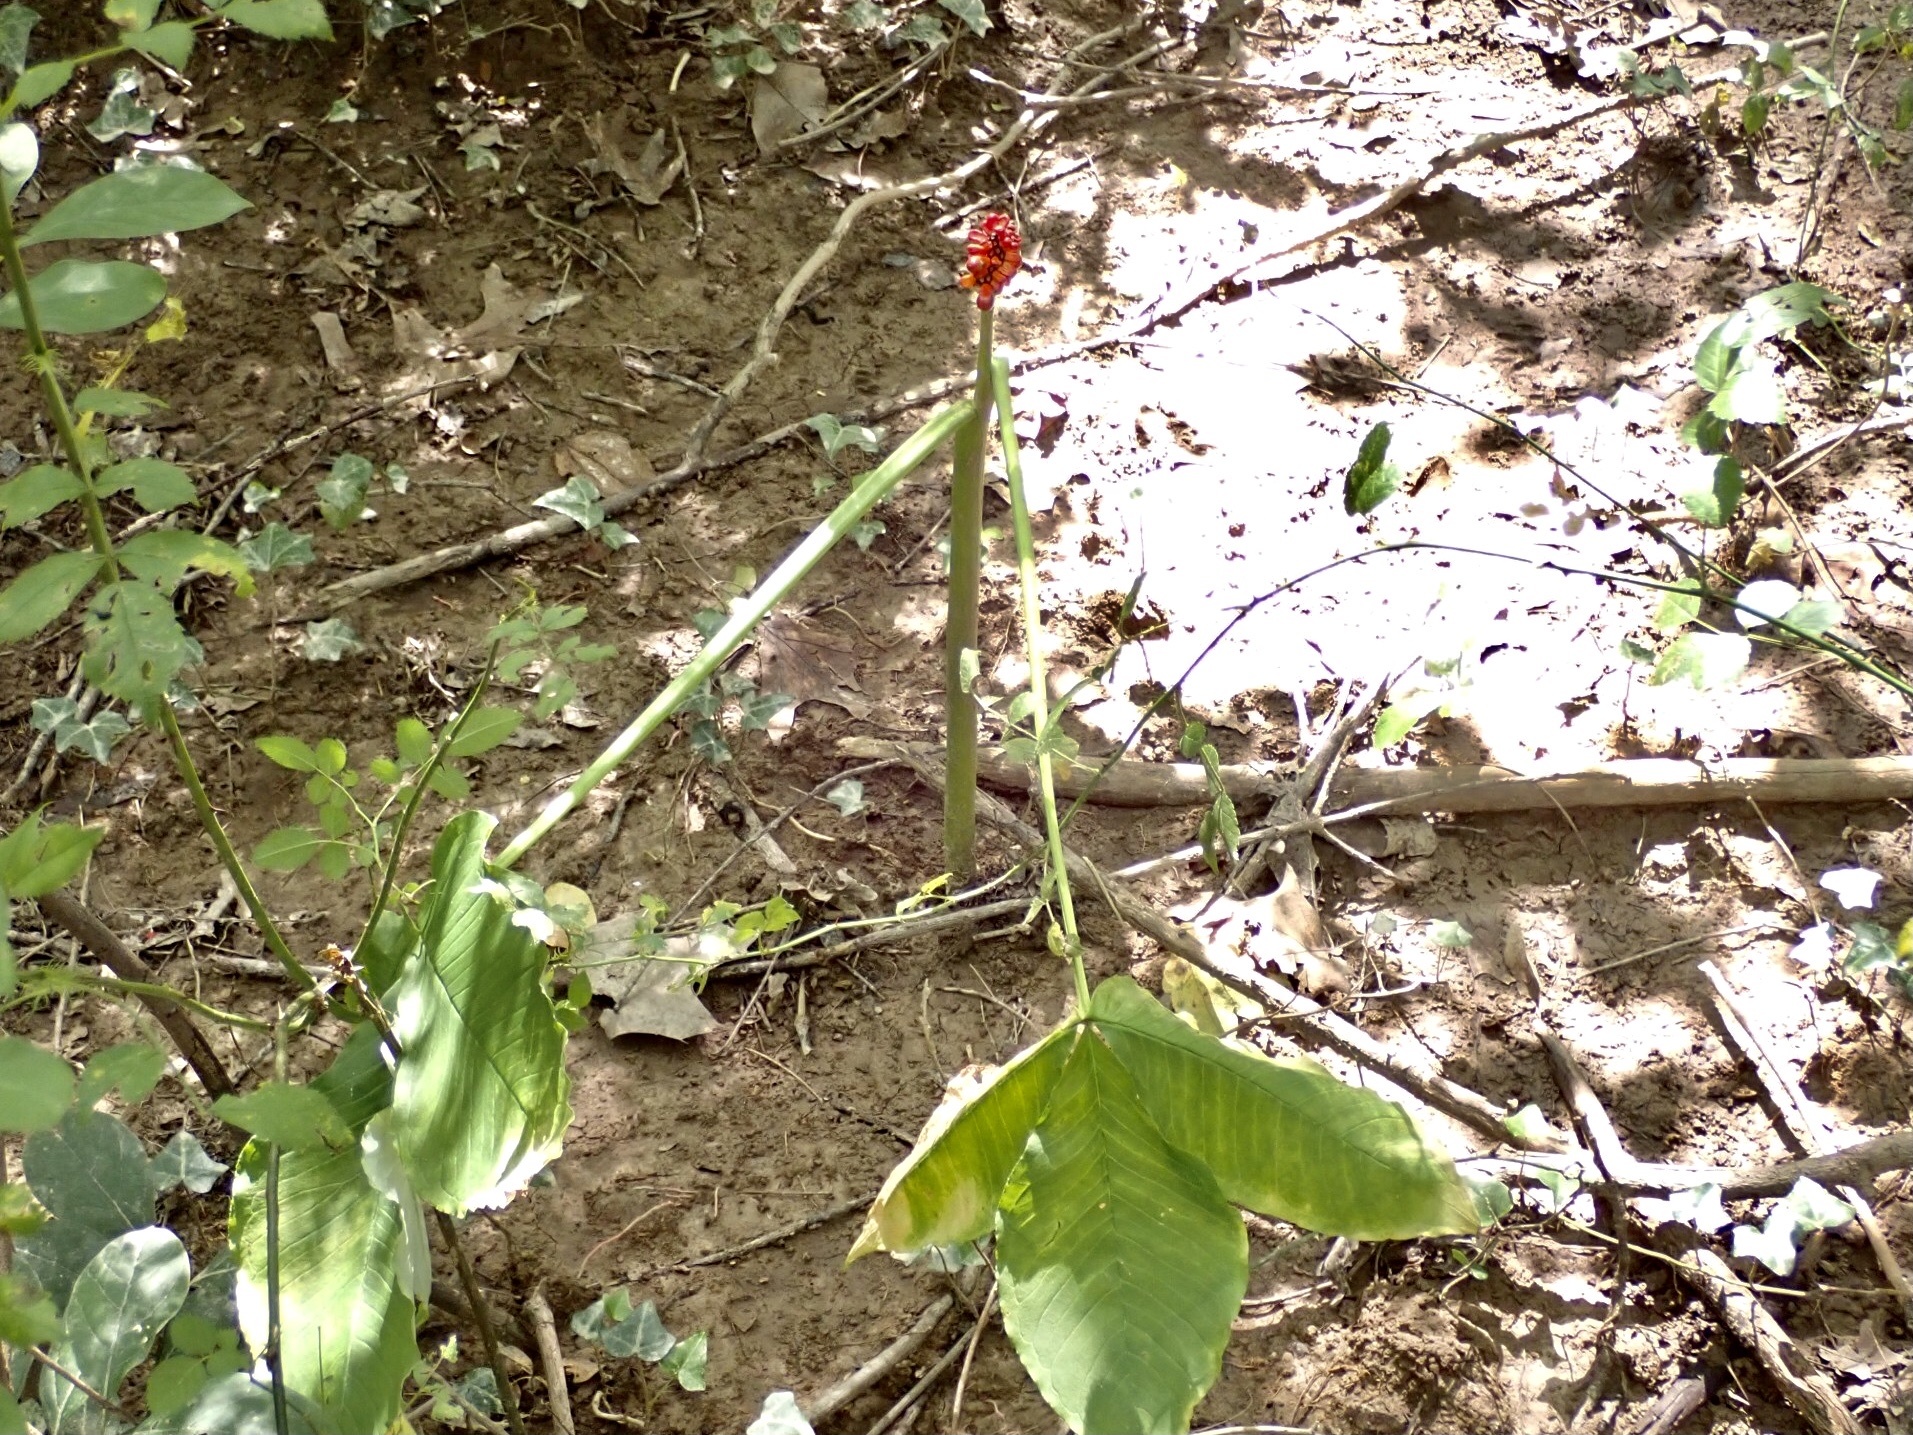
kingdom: Plantae
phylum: Tracheophyta
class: Liliopsida
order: Alismatales
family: Araceae
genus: Arisaema
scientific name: Arisaema triphyllum
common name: Jack-in-the-pulpit
